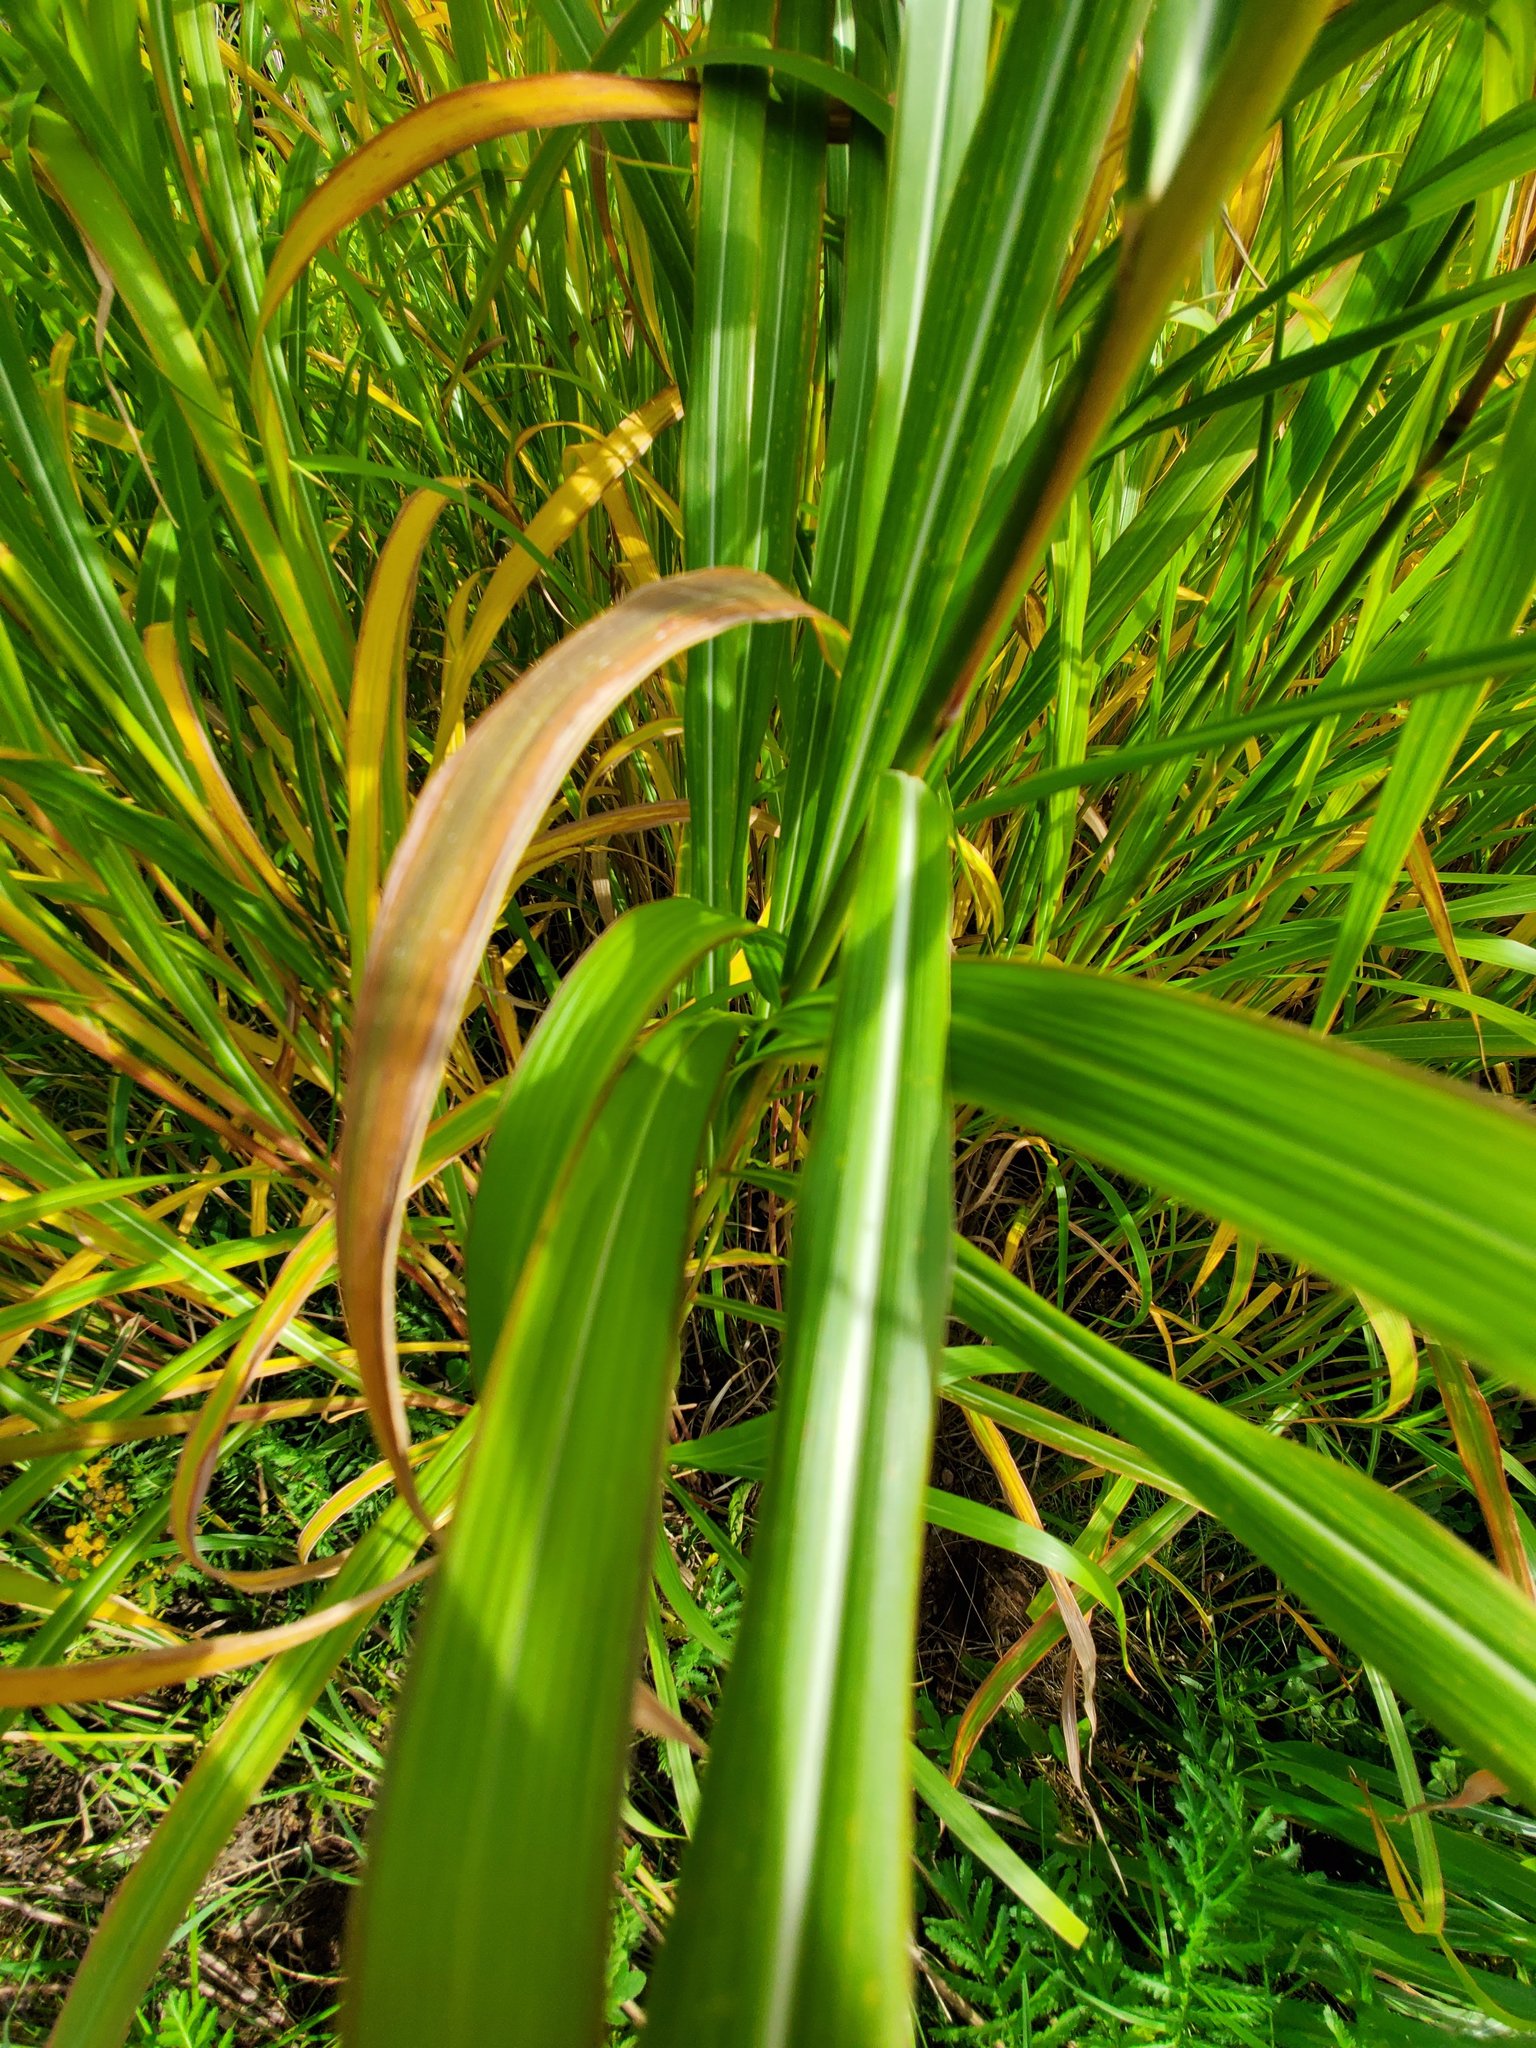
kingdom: Plantae
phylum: Tracheophyta
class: Liliopsida
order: Poales
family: Poaceae
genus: Miscanthus
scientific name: Miscanthus sacchariflorus
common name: Amur silver grass
